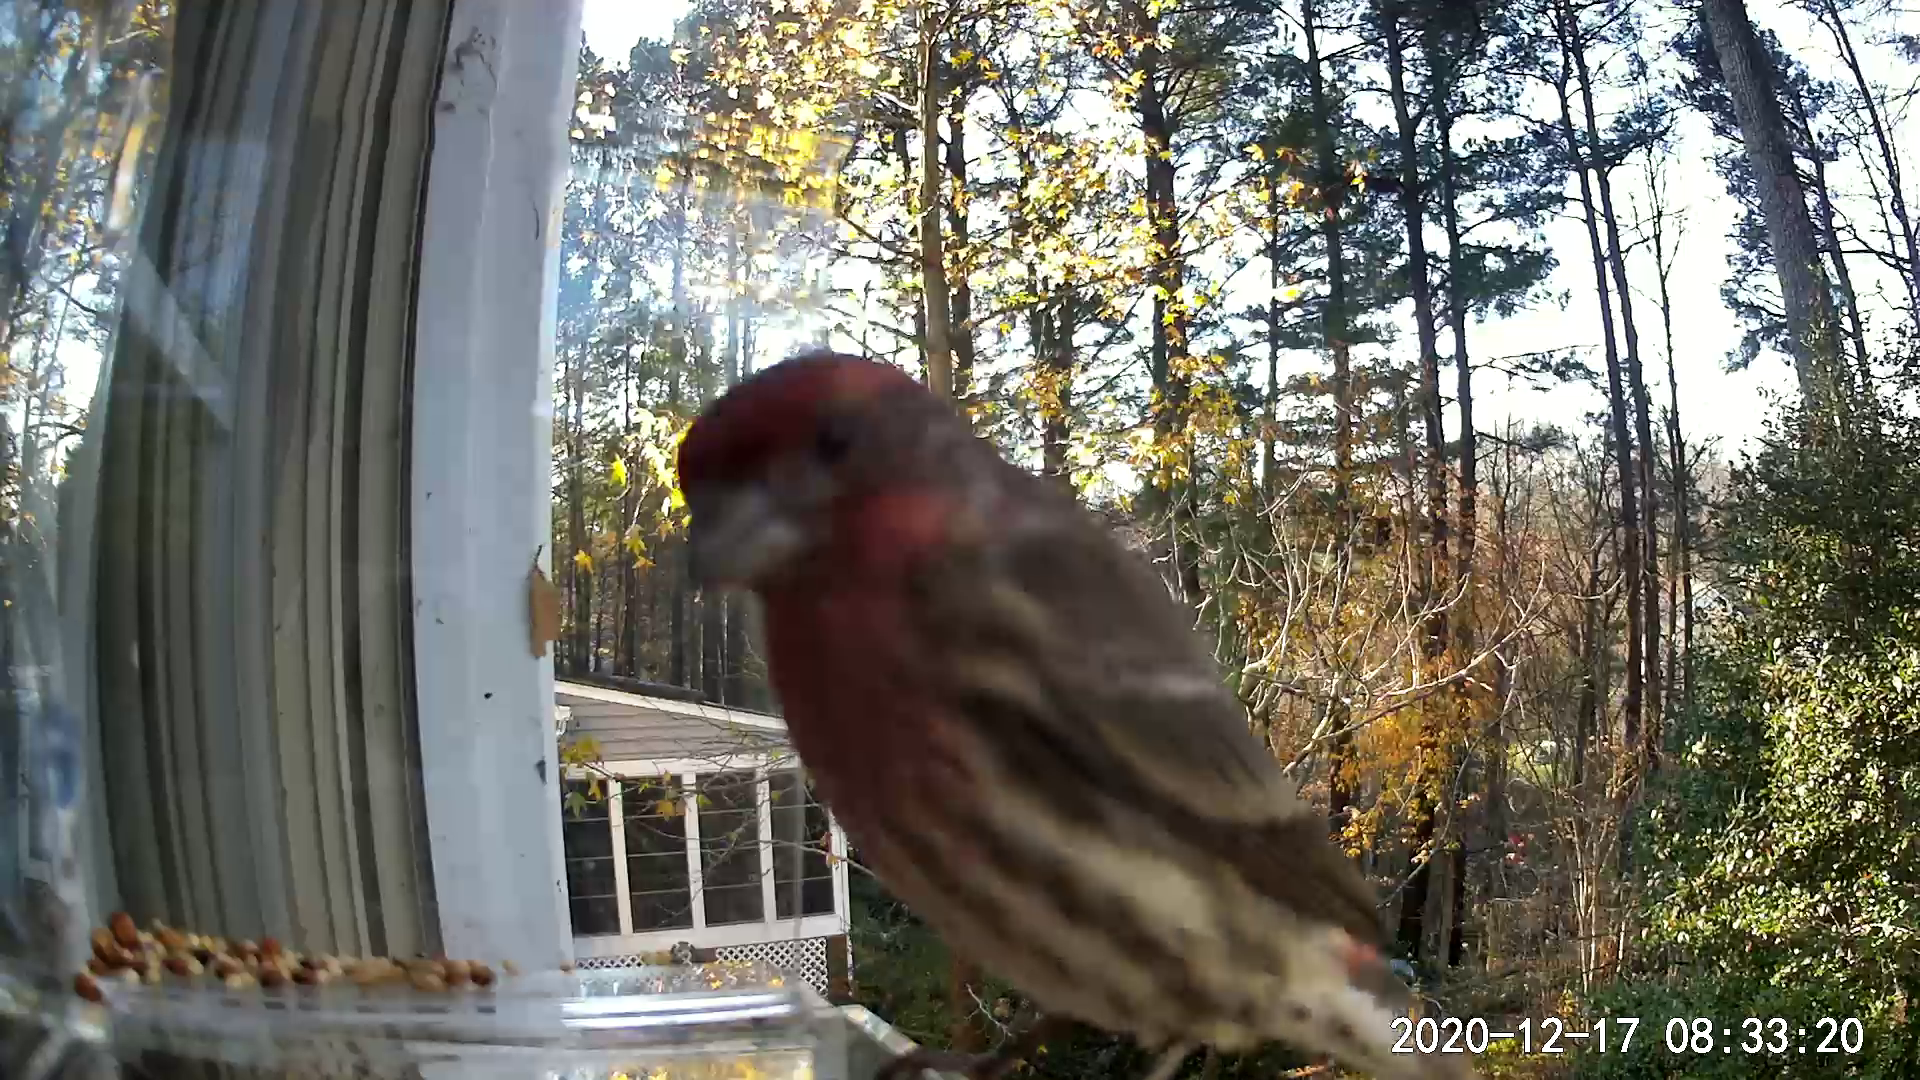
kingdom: Animalia
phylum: Chordata
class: Aves
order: Passeriformes
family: Fringillidae
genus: Haemorhous
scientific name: Haemorhous mexicanus
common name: House finch
